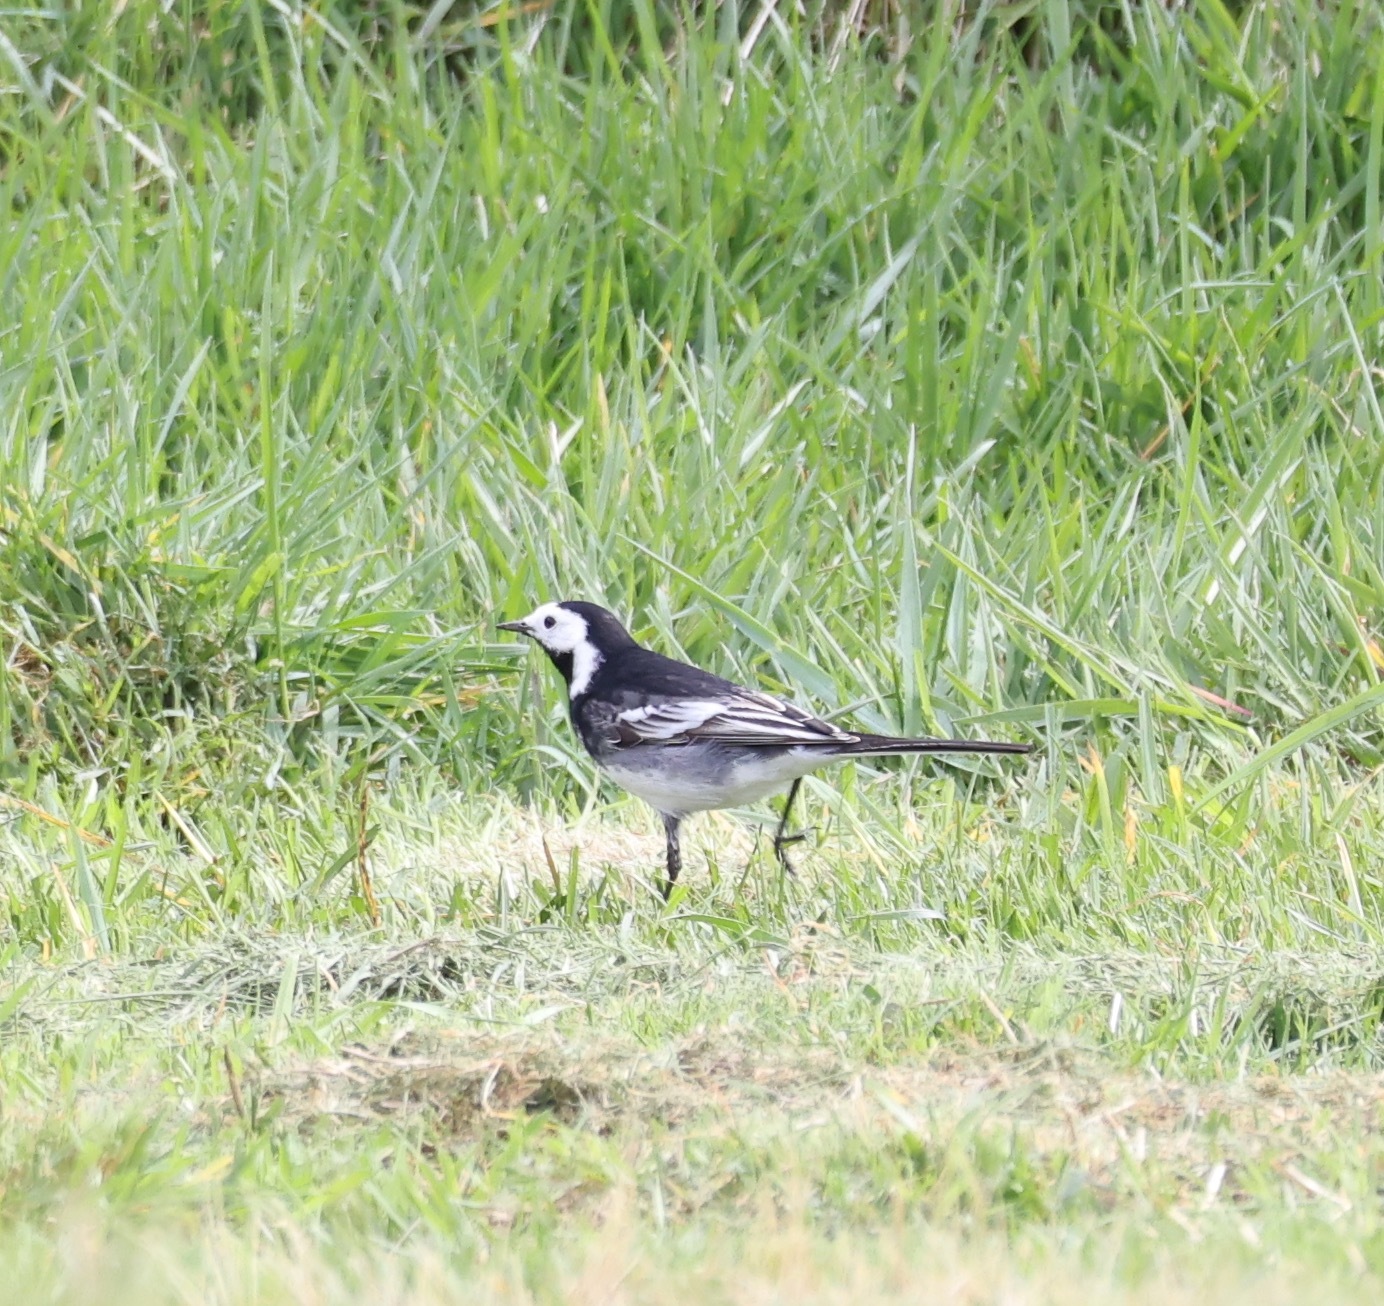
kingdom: Animalia
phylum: Chordata
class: Aves
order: Passeriformes
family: Motacillidae
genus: Motacilla
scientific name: Motacilla alba
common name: White wagtail
